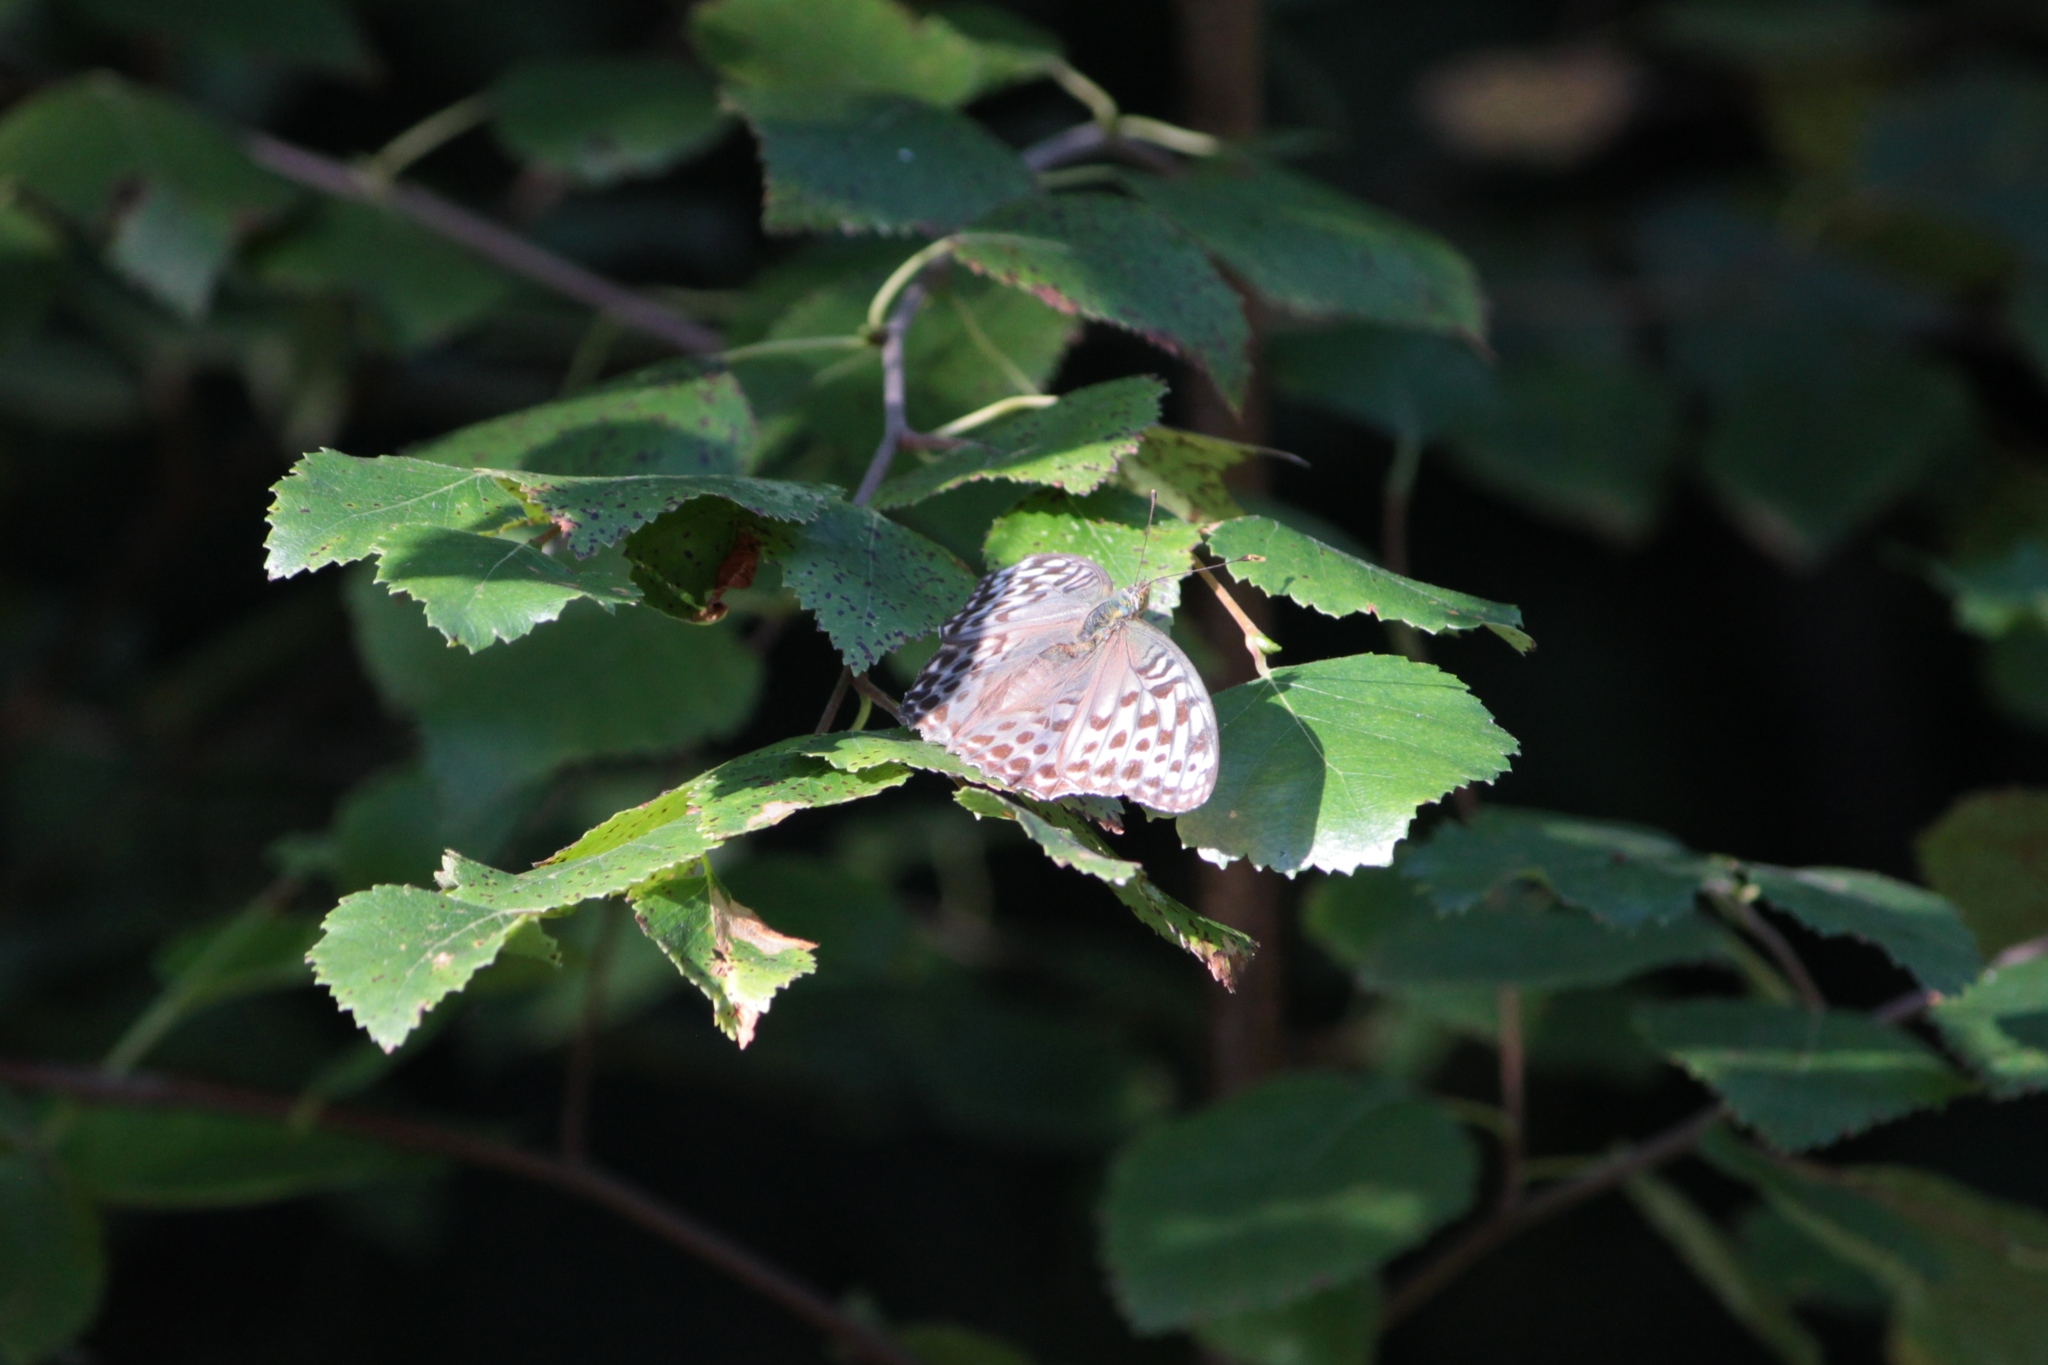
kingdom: Animalia
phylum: Arthropoda
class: Insecta
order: Lepidoptera
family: Nymphalidae
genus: Argynnis
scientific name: Argynnis paphia
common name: Silver-washed fritillary
